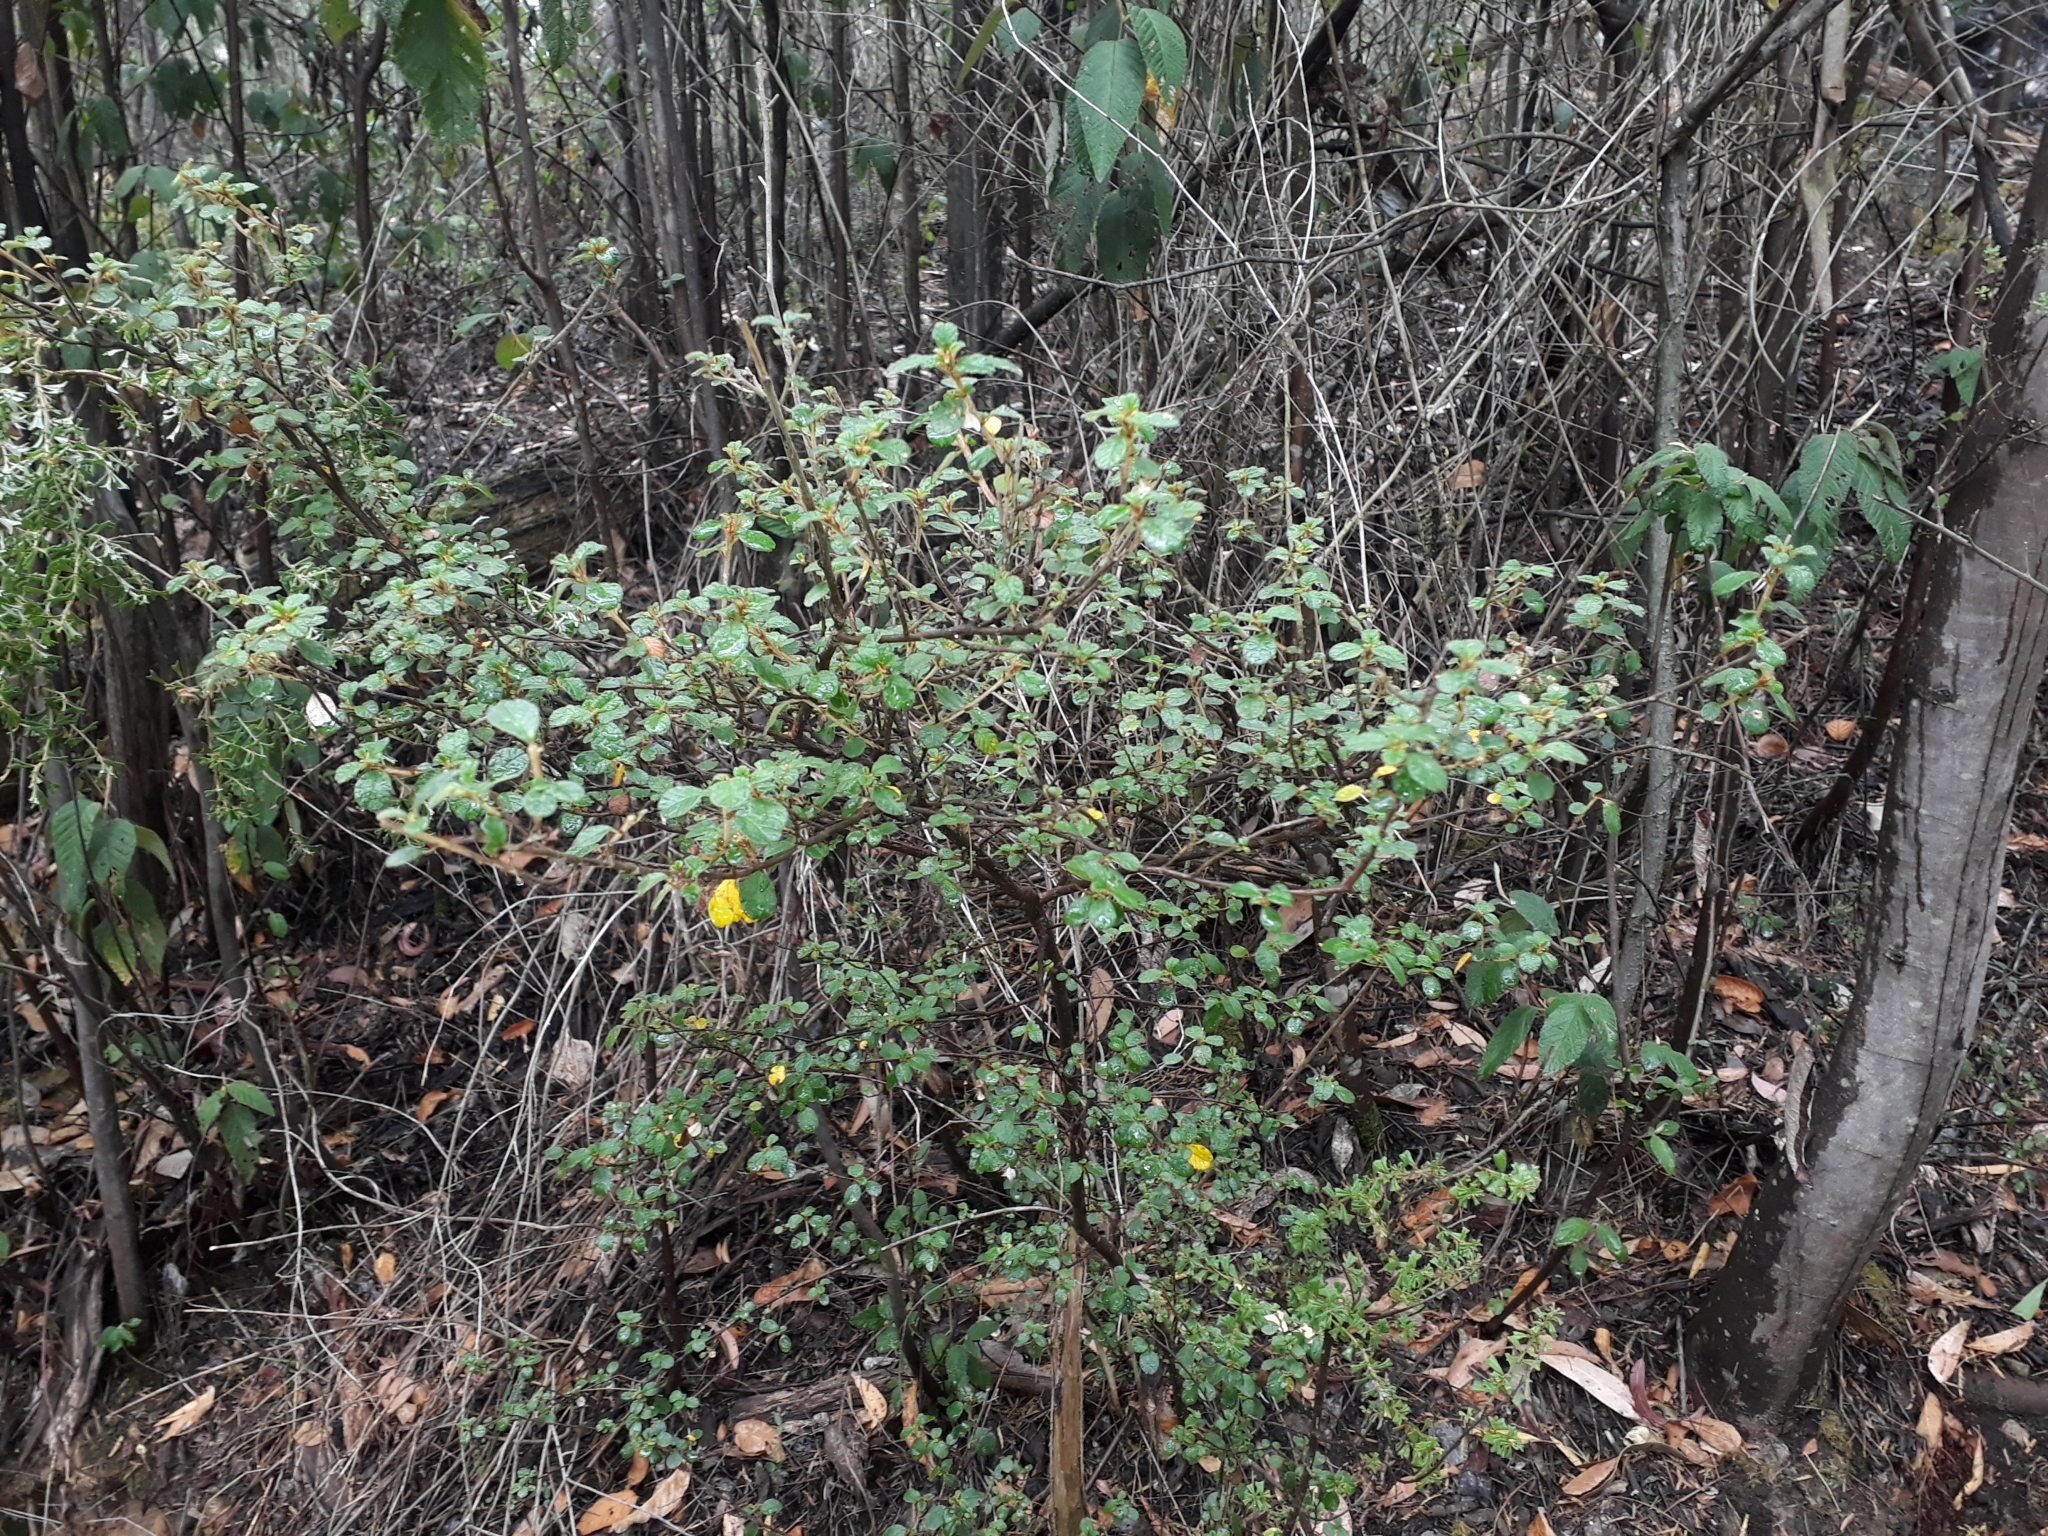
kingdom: Plantae
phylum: Tracheophyta
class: Magnoliopsida
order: Rosales
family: Rhamnaceae
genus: Spyridium
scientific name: Spyridium parvifolium
